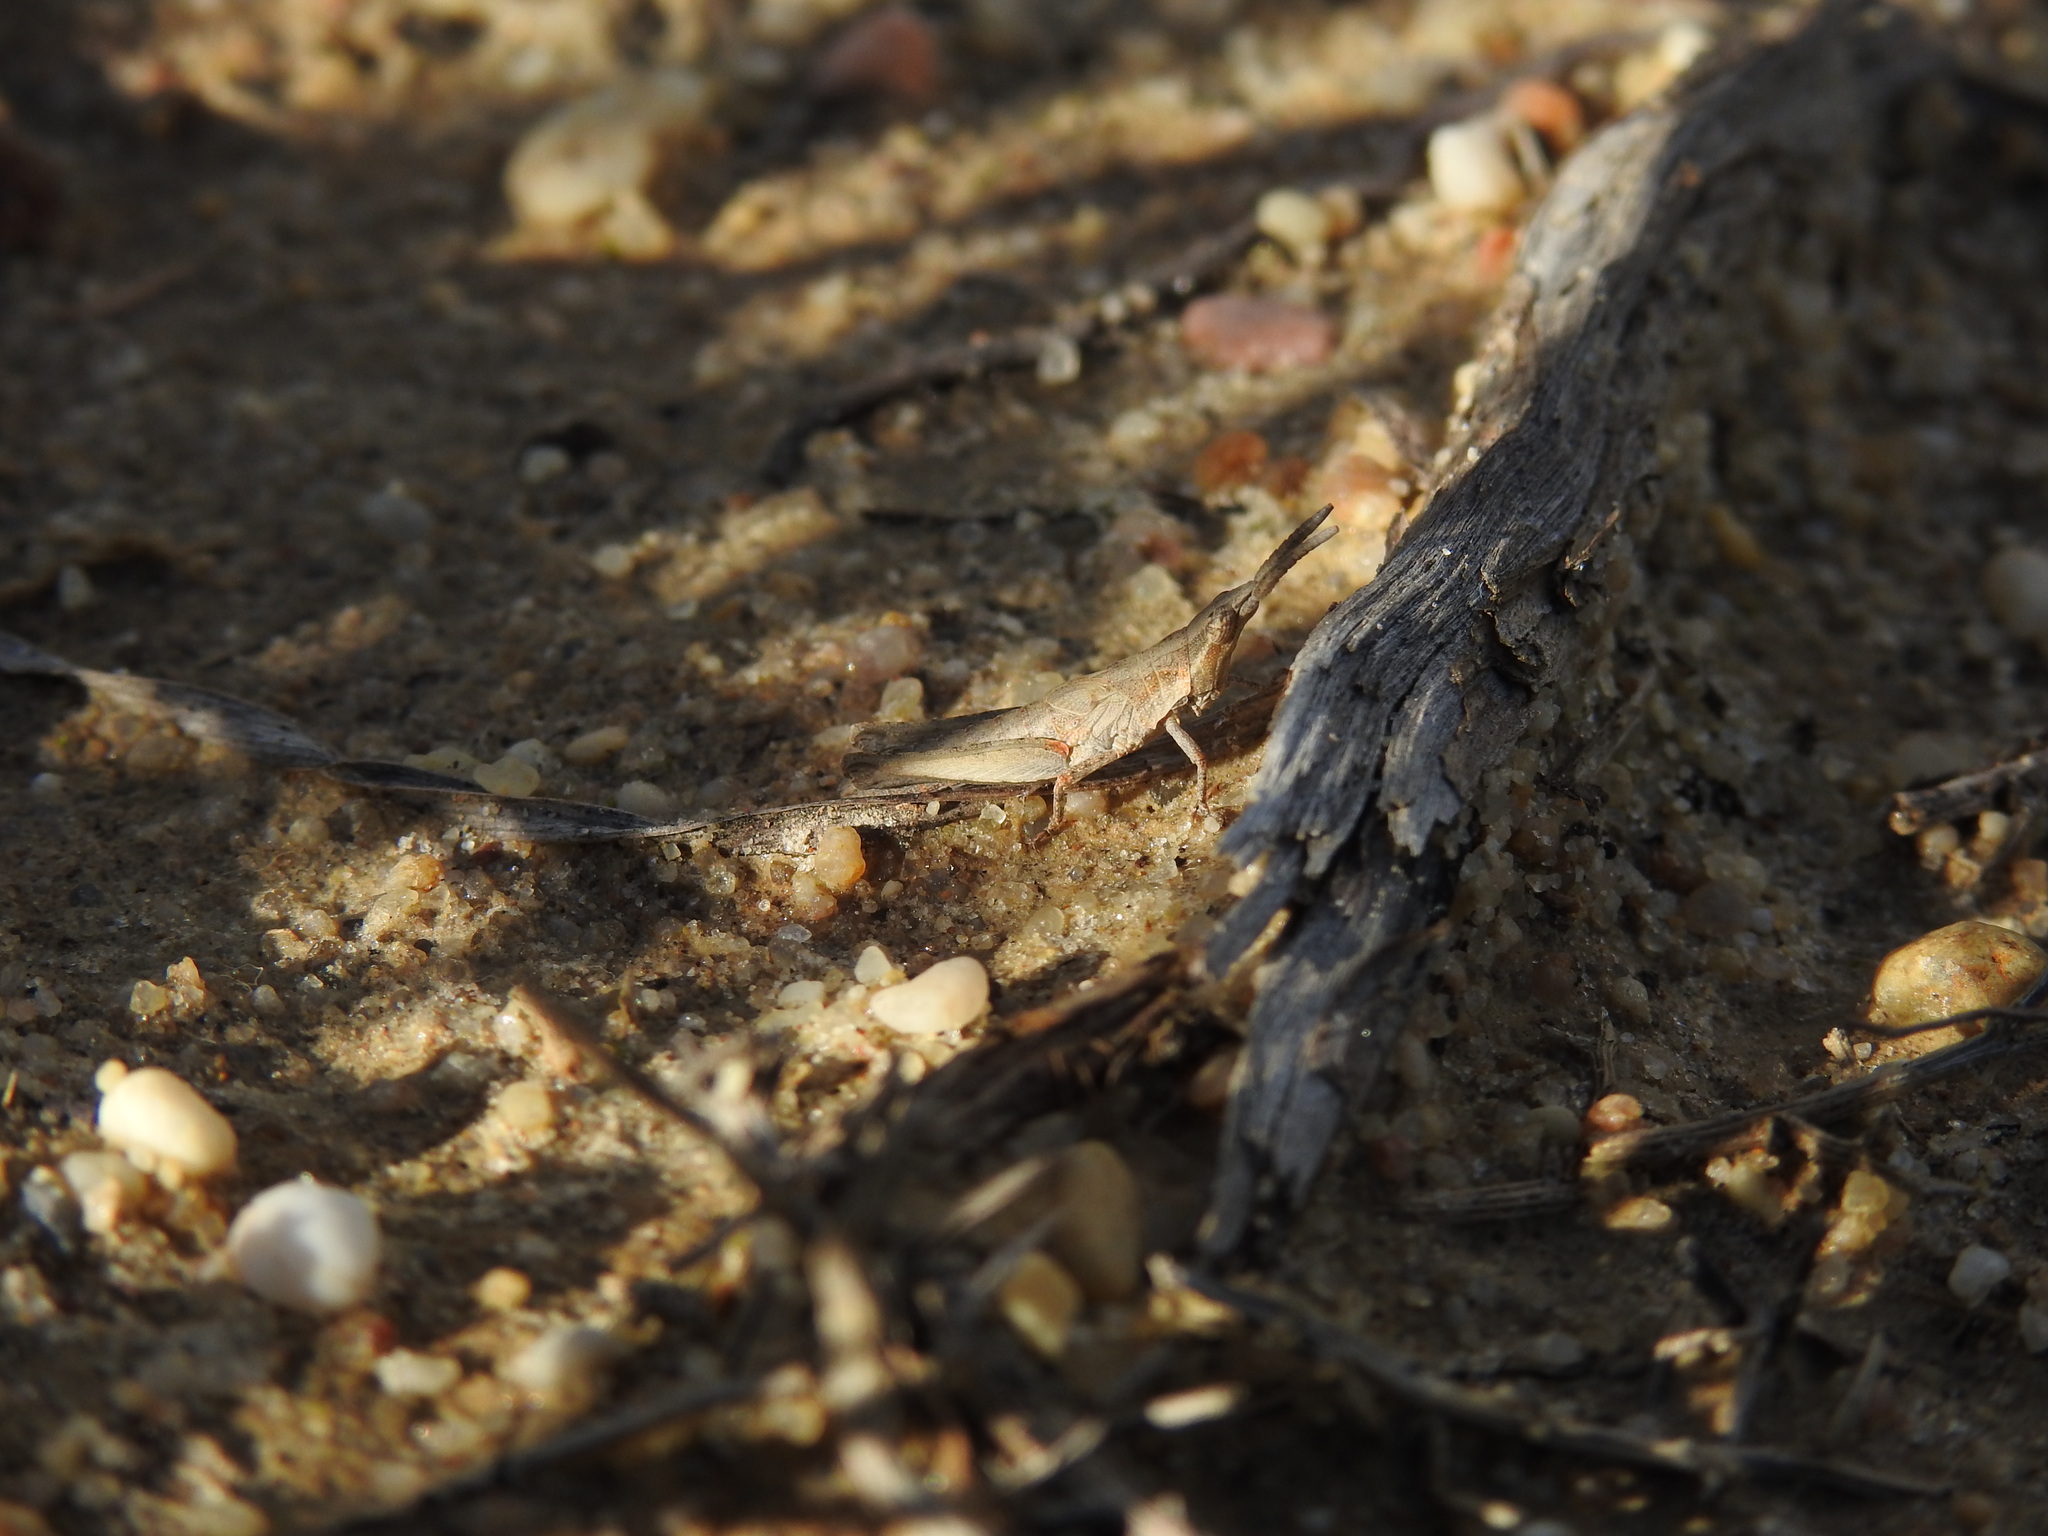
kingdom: Animalia
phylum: Arthropoda
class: Insecta
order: Orthoptera
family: Pyrgomorphidae
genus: Pyrgomorpha
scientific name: Pyrgomorpha conica
